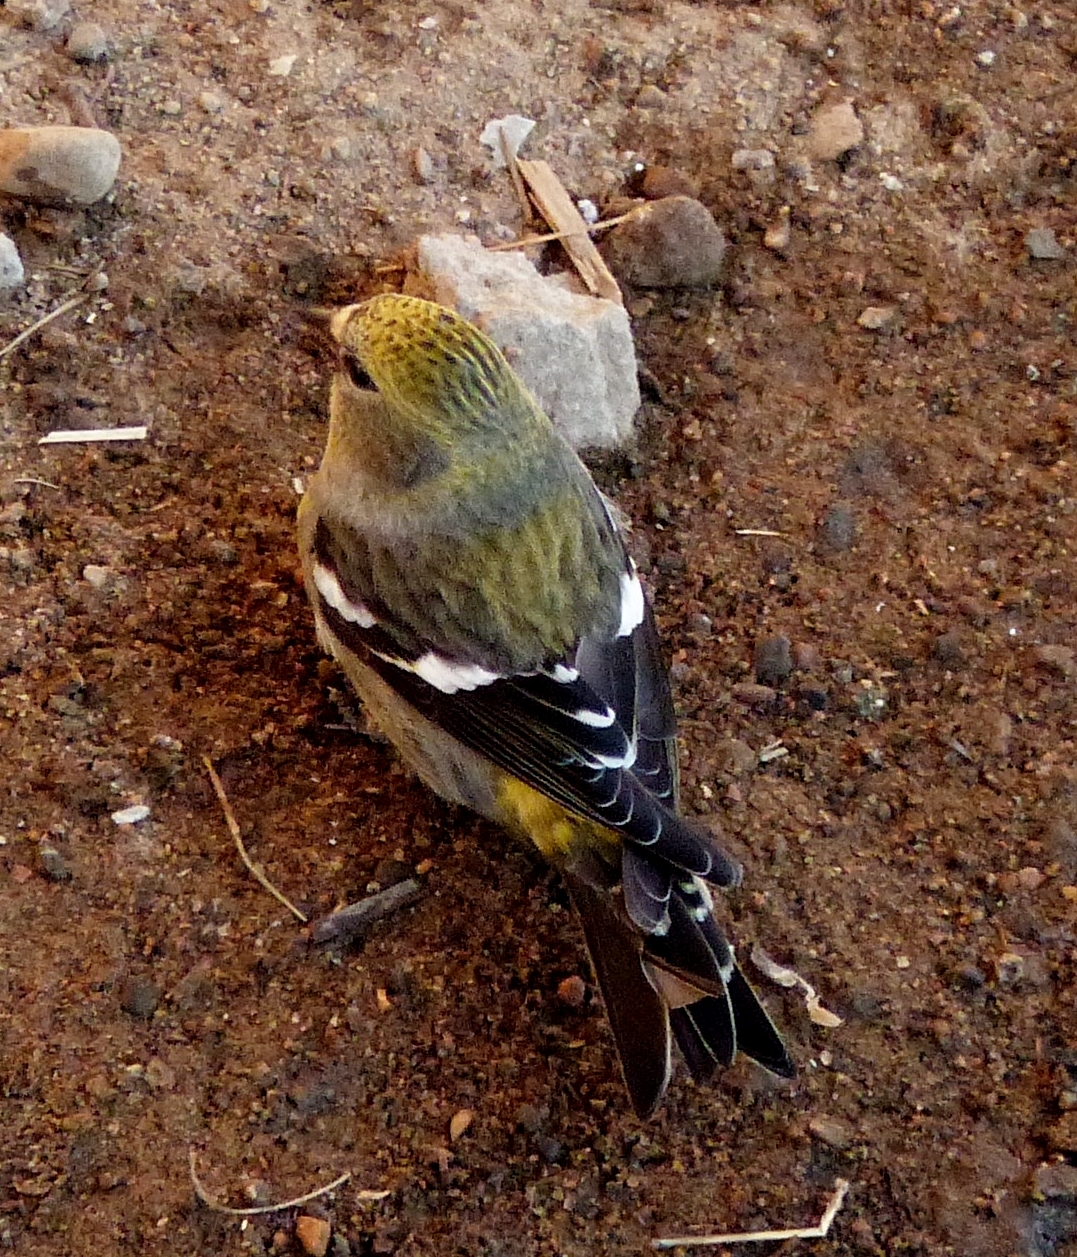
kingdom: Animalia
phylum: Chordata
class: Aves
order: Passeriformes
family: Fringillidae
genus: Loxia
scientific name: Loxia leucoptera
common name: Two-barred crossbill
